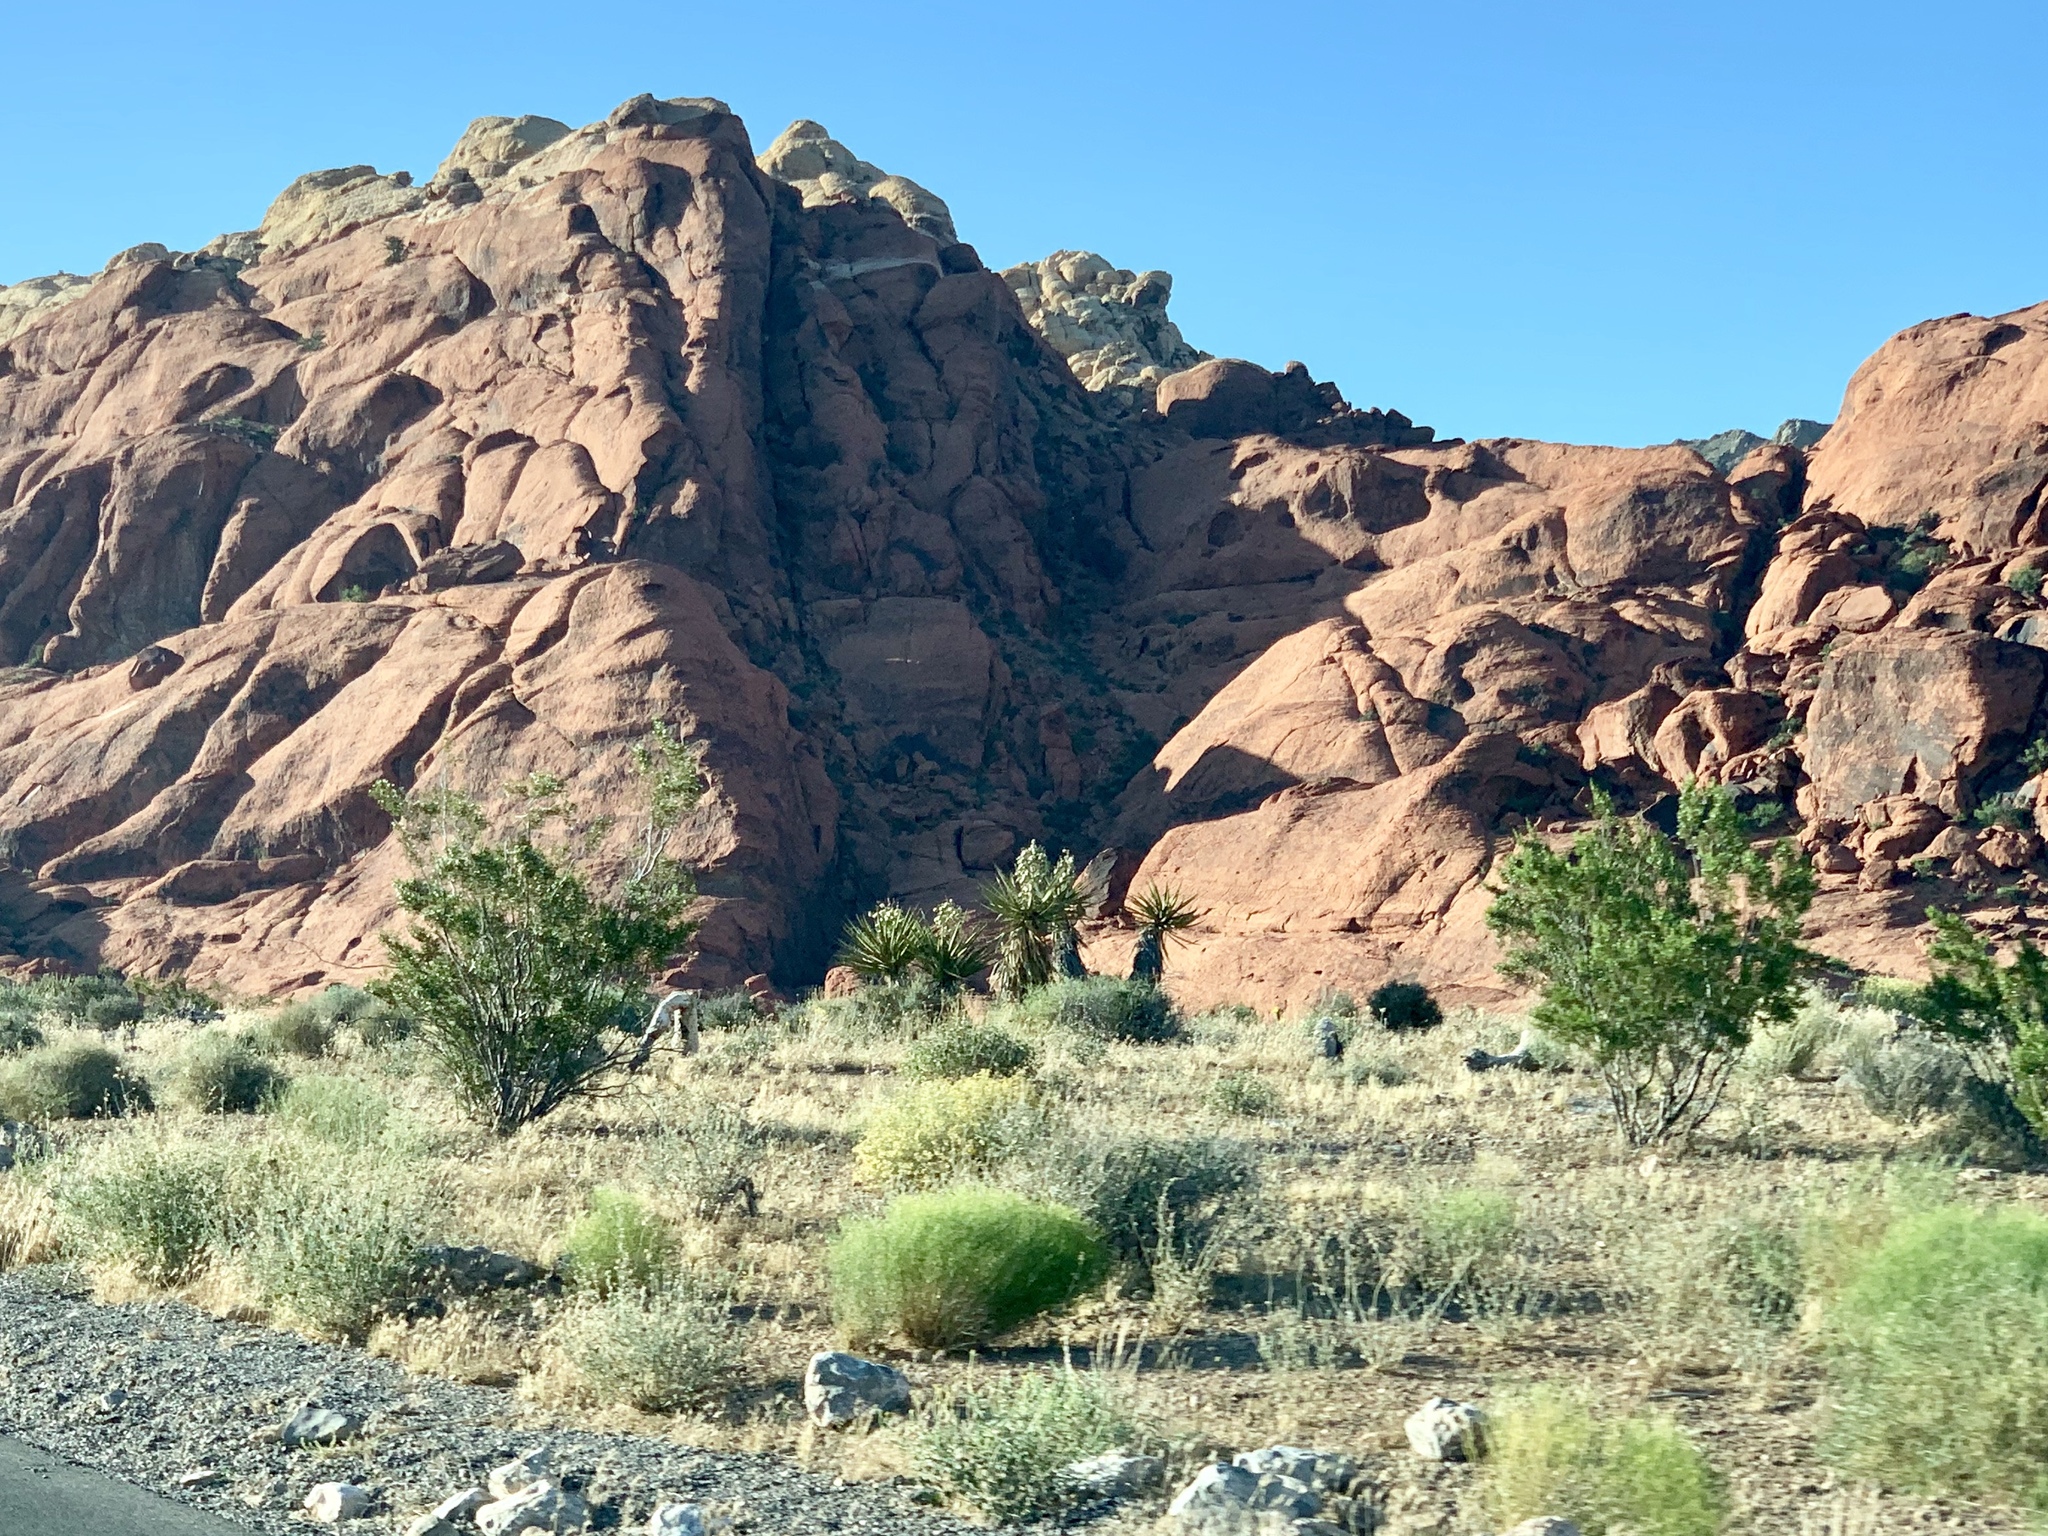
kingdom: Plantae
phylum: Tracheophyta
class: Magnoliopsida
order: Zygophyllales
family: Zygophyllaceae
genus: Larrea
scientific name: Larrea tridentata
